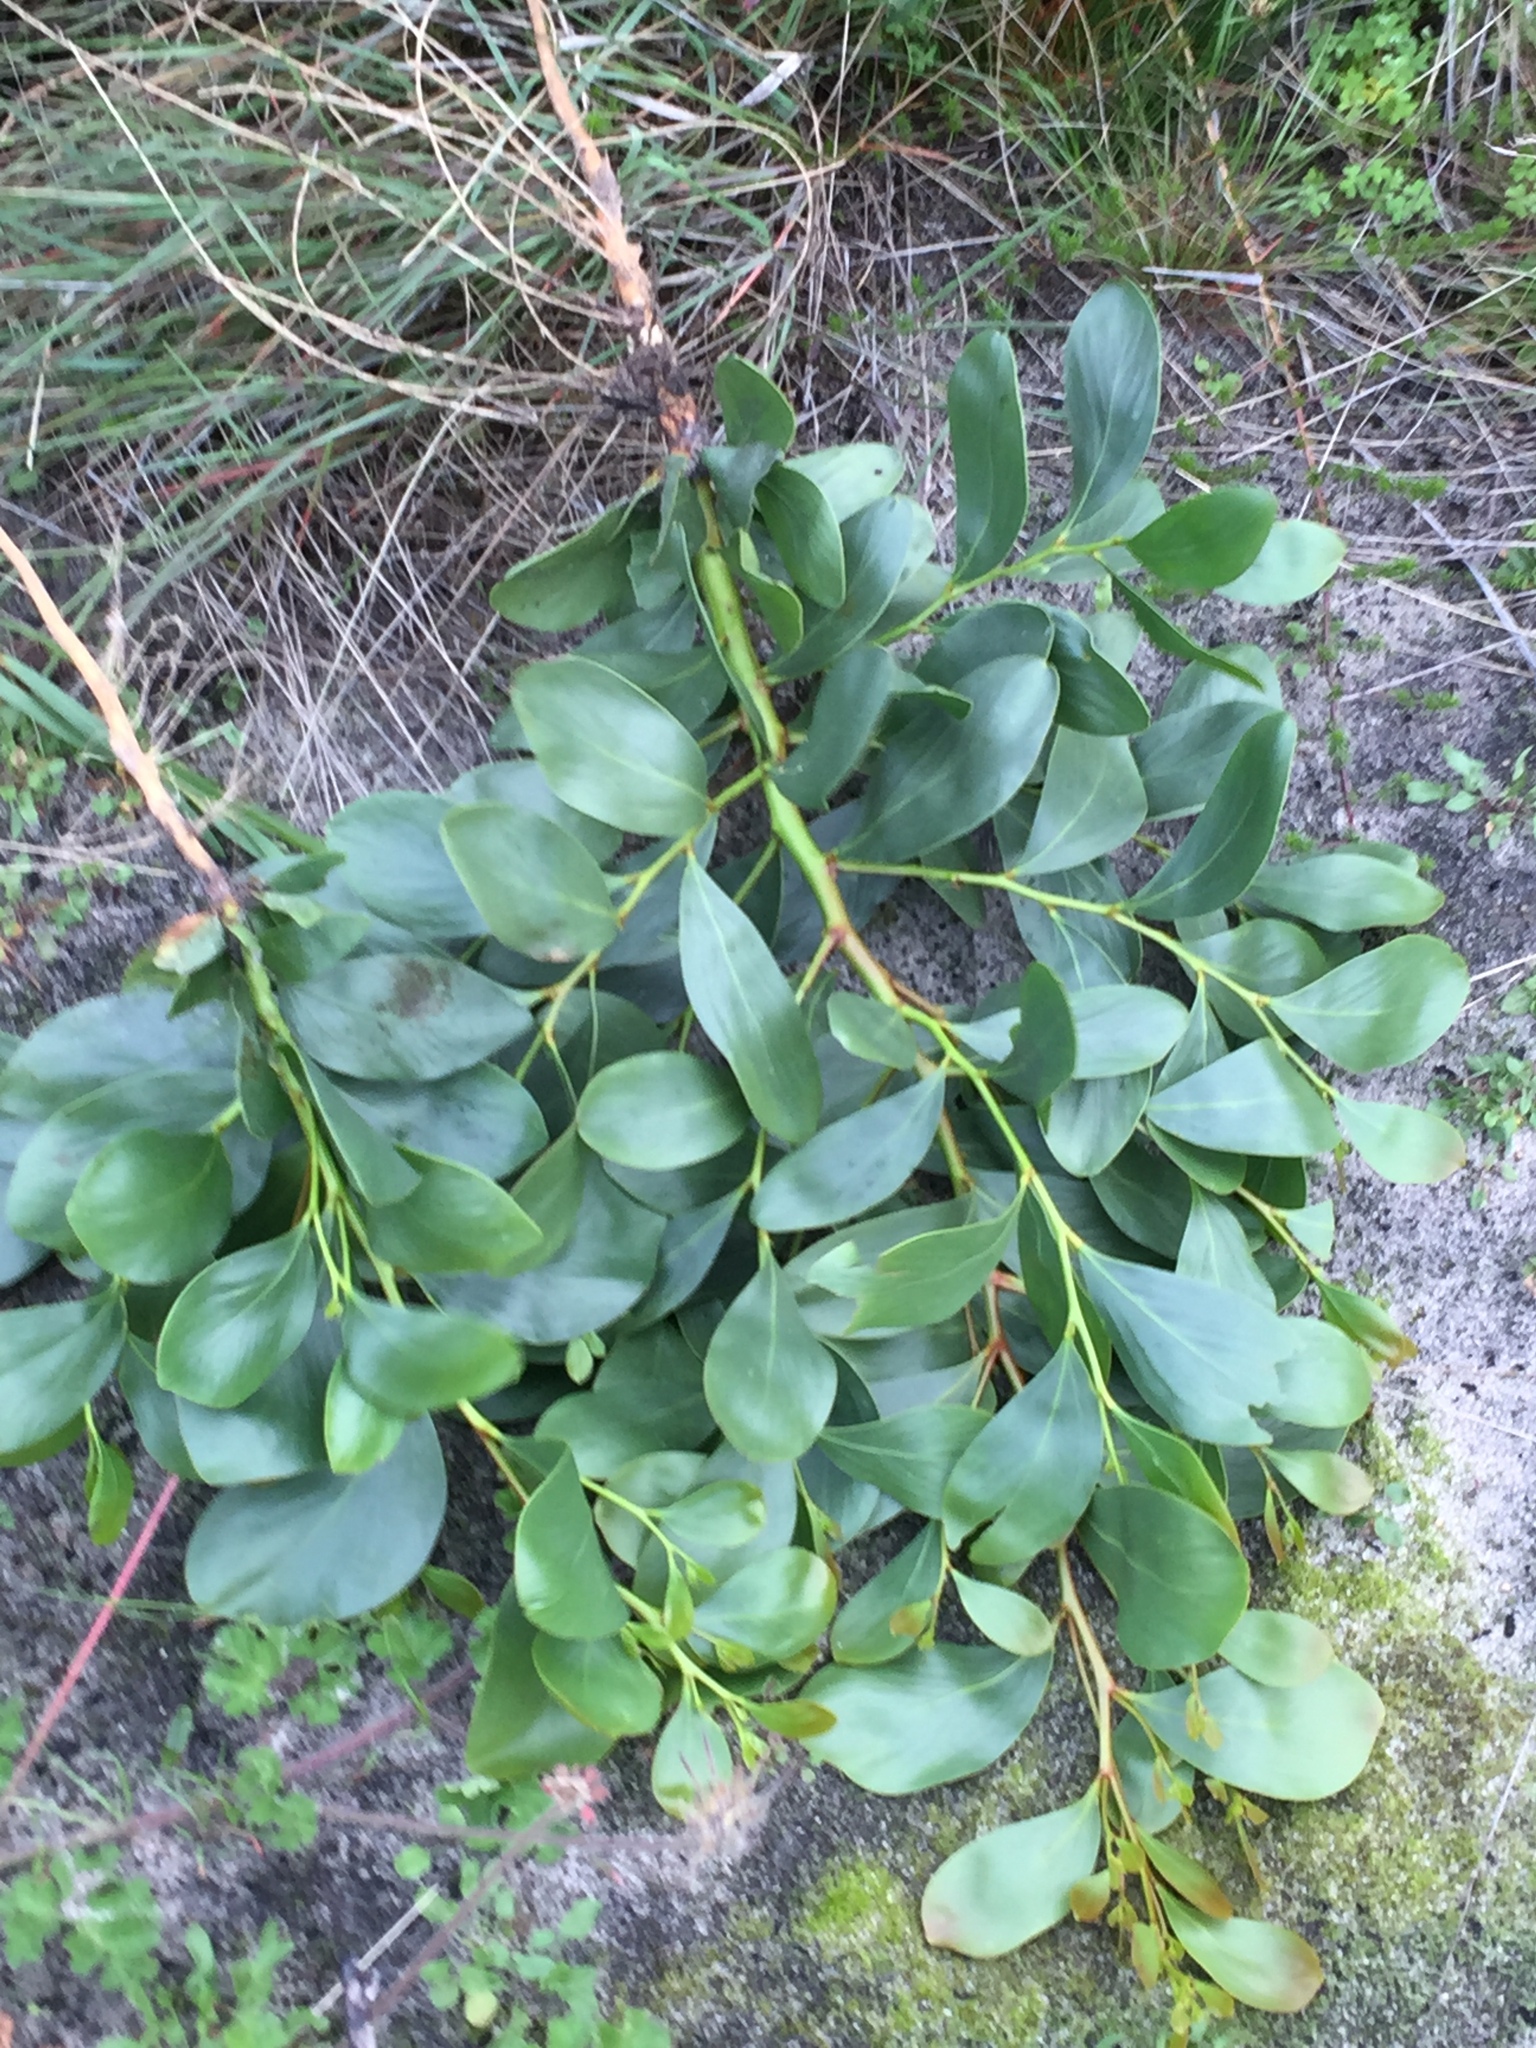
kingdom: Plantae
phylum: Tracheophyta
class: Magnoliopsida
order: Fabales
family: Fabaceae
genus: Acacia
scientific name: Acacia pycnantha
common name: Golden wattle
